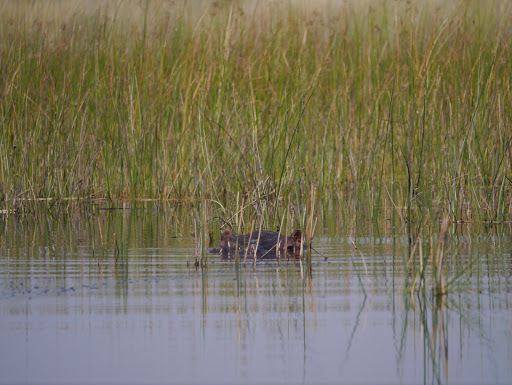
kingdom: Animalia
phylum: Chordata
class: Mammalia
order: Artiodactyla
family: Hippopotamidae
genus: Hippopotamus
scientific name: Hippopotamus amphibius
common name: Common hippopotamus
